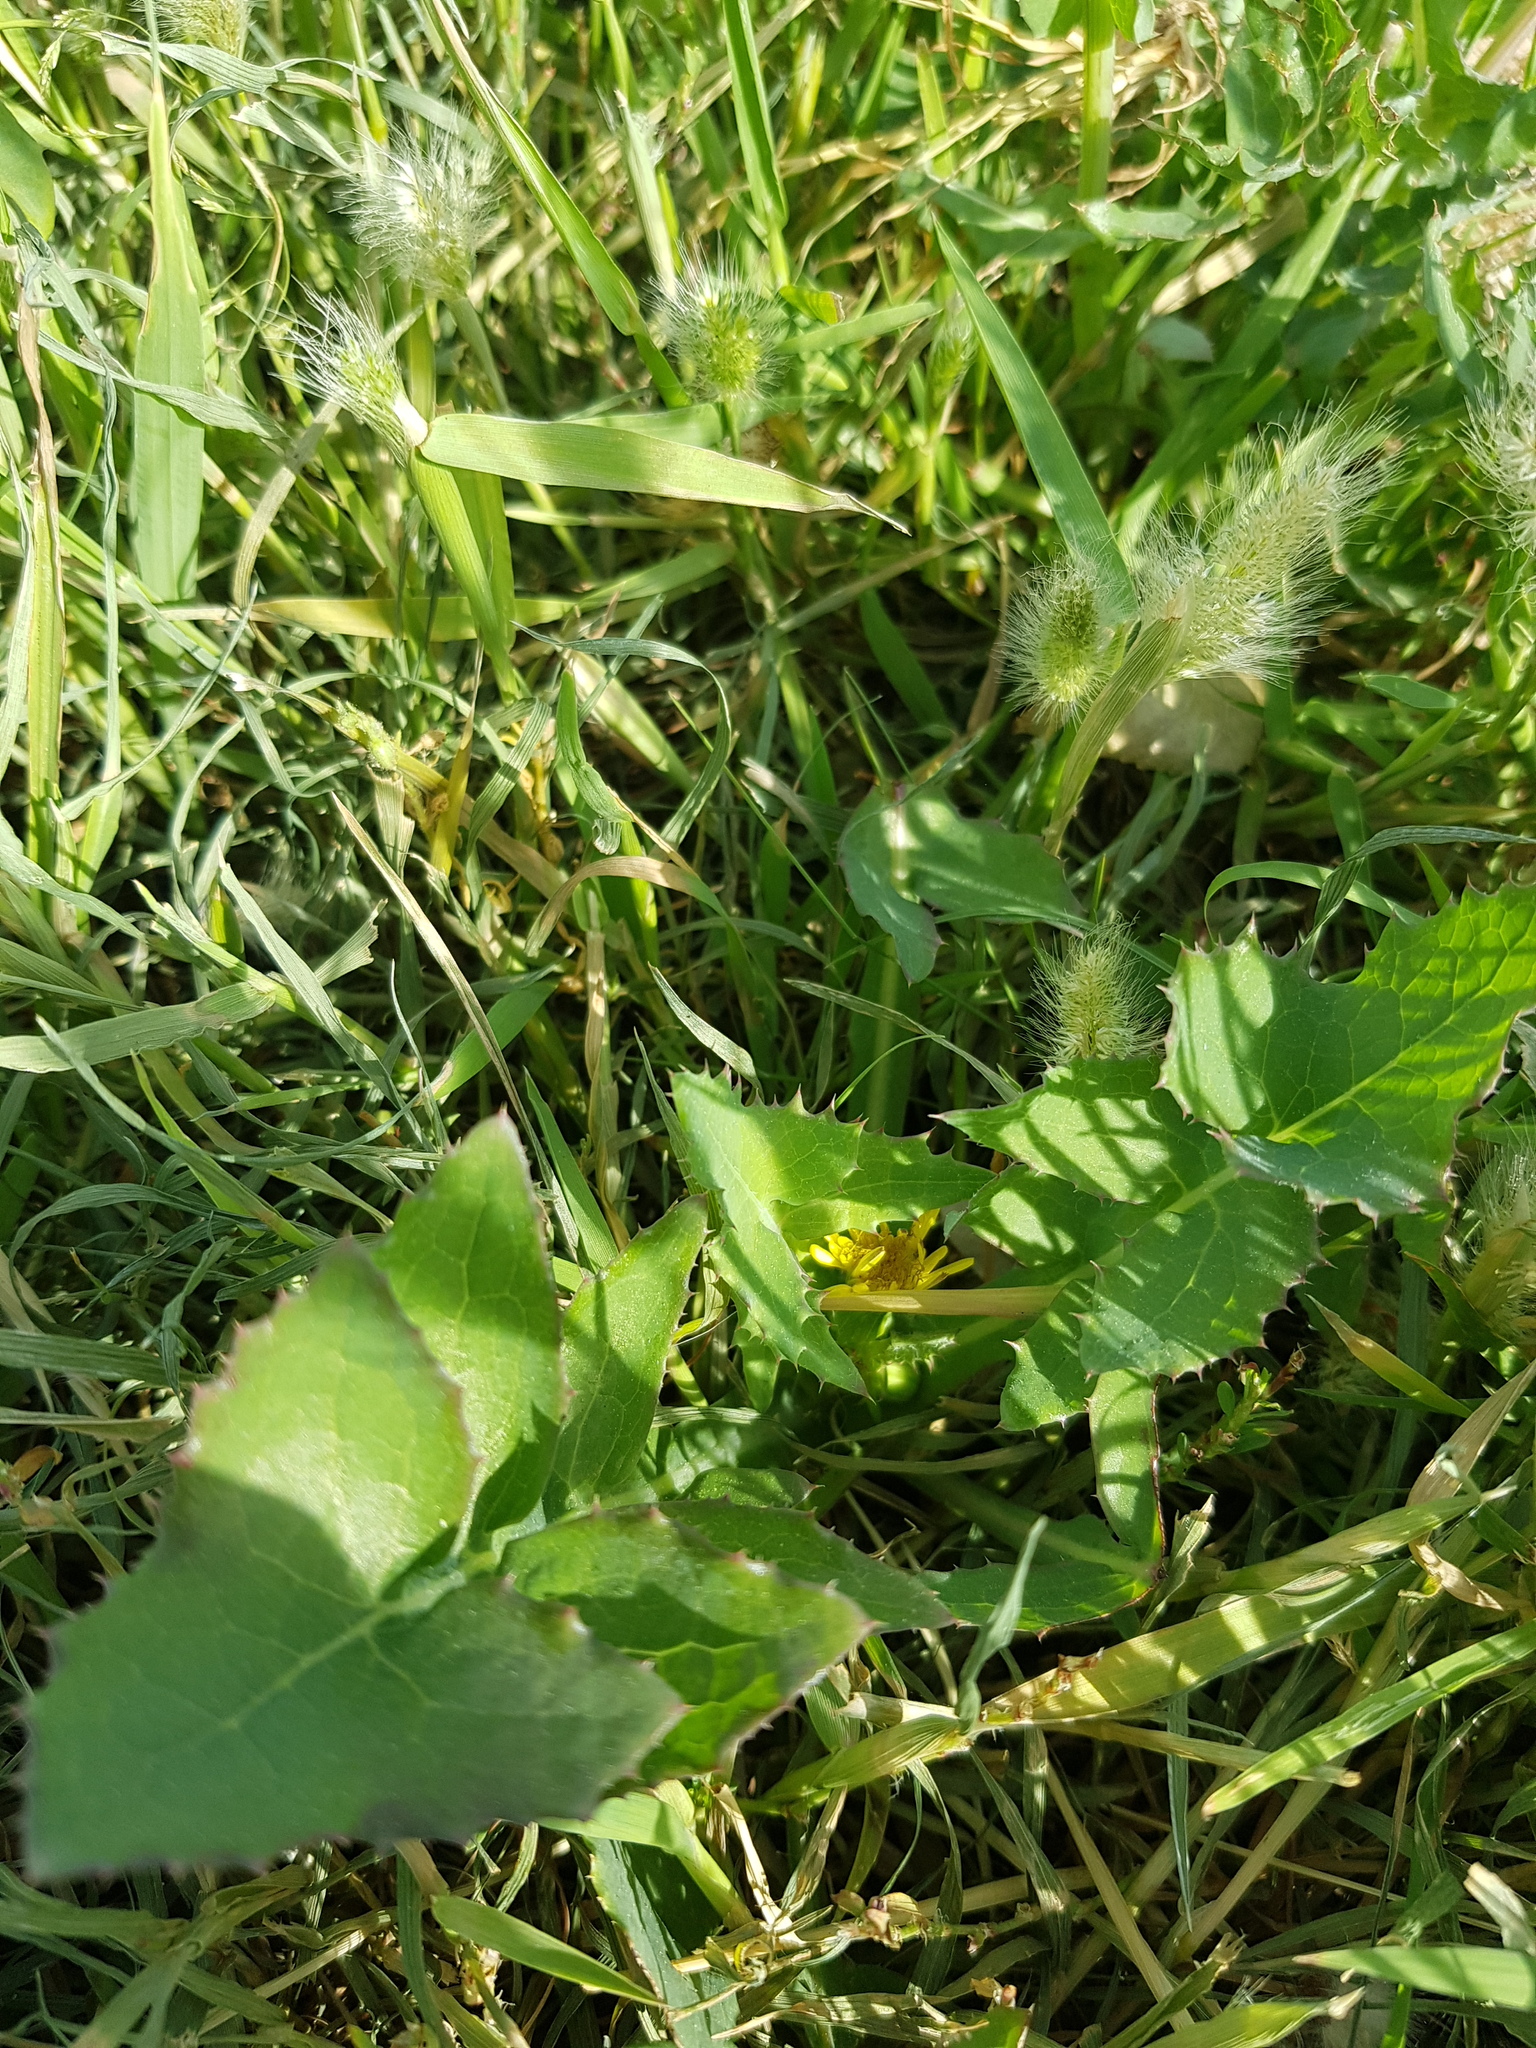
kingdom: Plantae
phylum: Tracheophyta
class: Magnoliopsida
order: Asterales
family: Asteraceae
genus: Sonchus
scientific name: Sonchus oleraceus
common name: Common sowthistle
